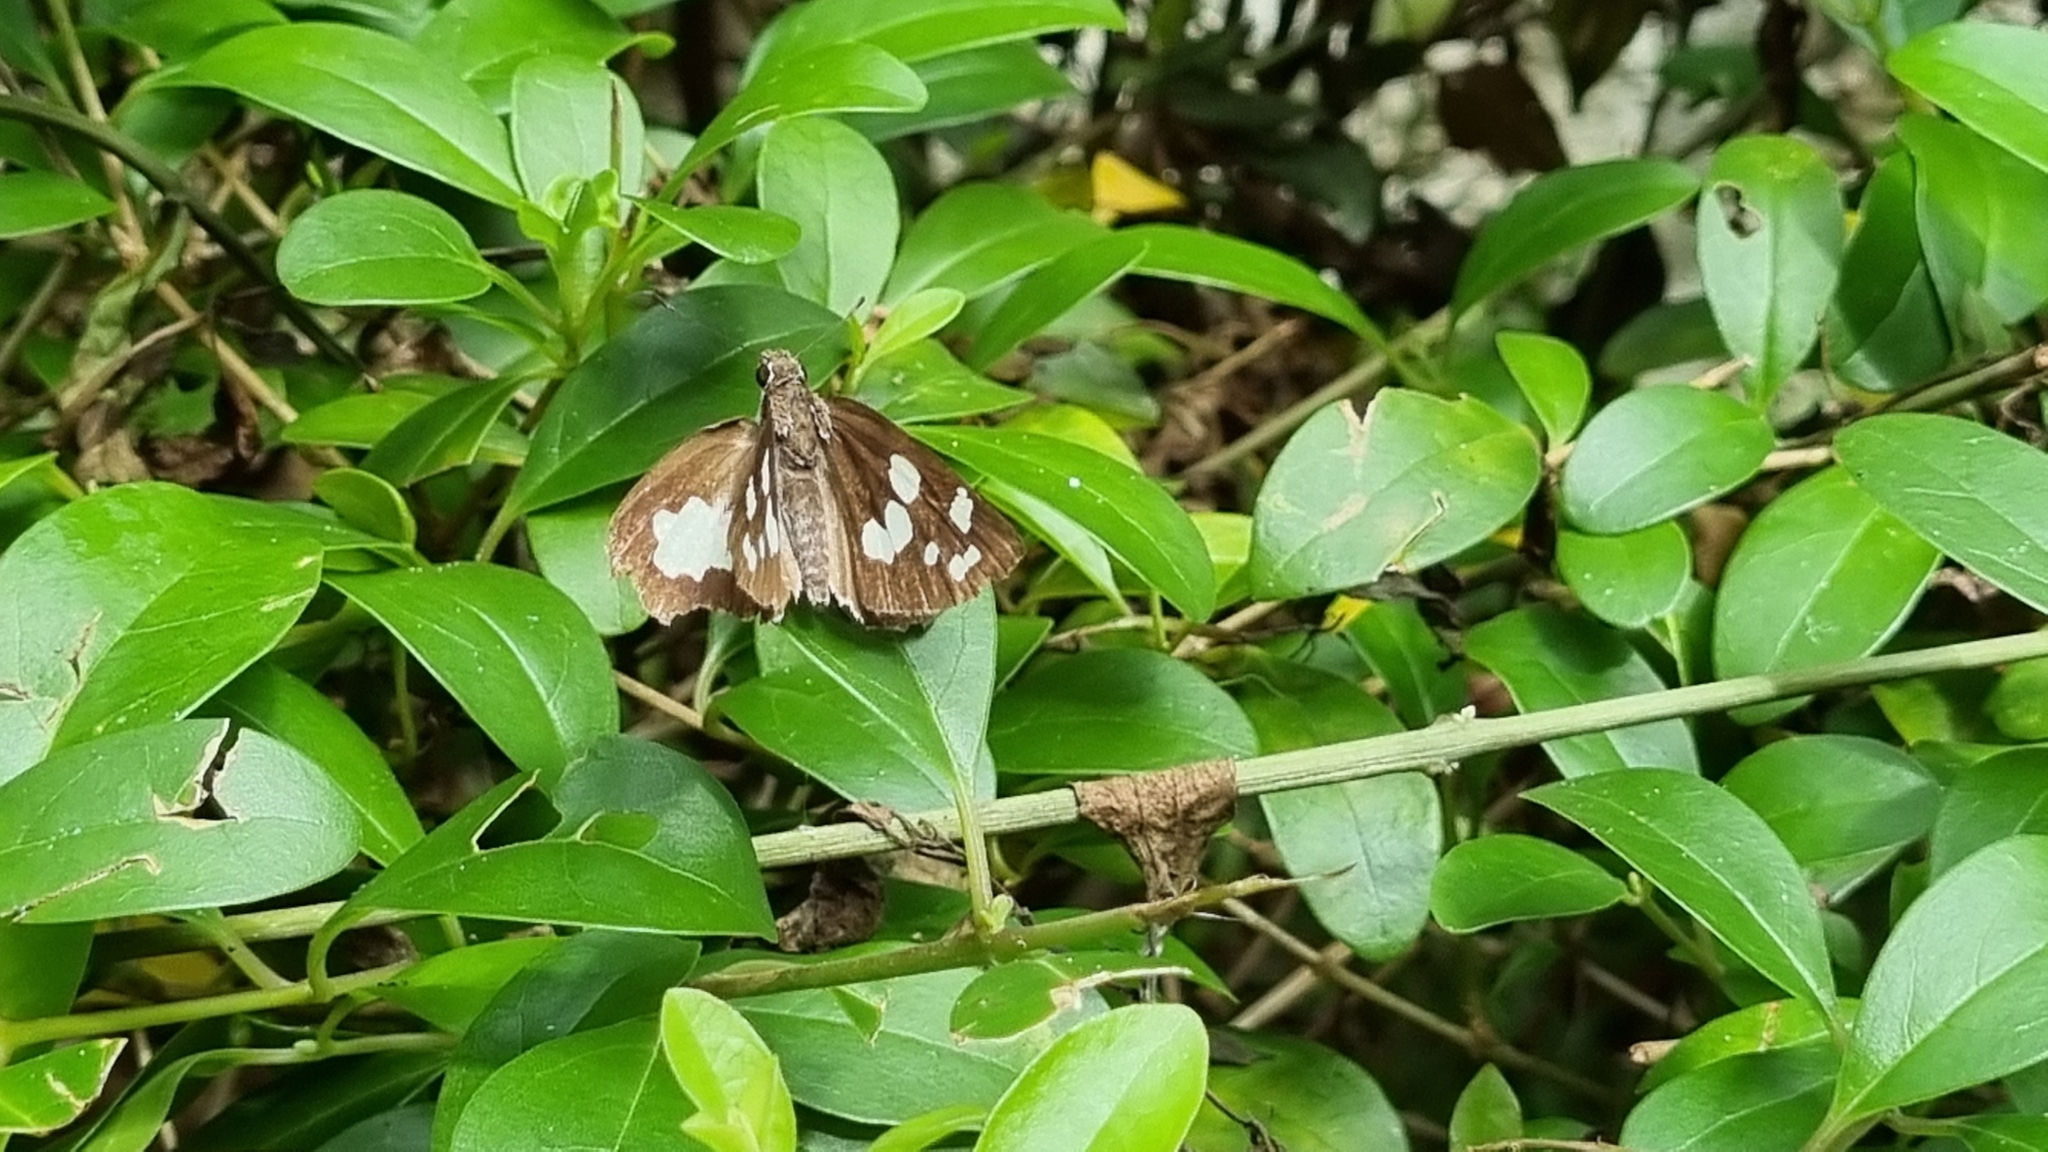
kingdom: Animalia
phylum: Arthropoda
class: Insecta
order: Lepidoptera
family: Hesperiidae
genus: Udaspes
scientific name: Udaspes folus
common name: Grass demon
